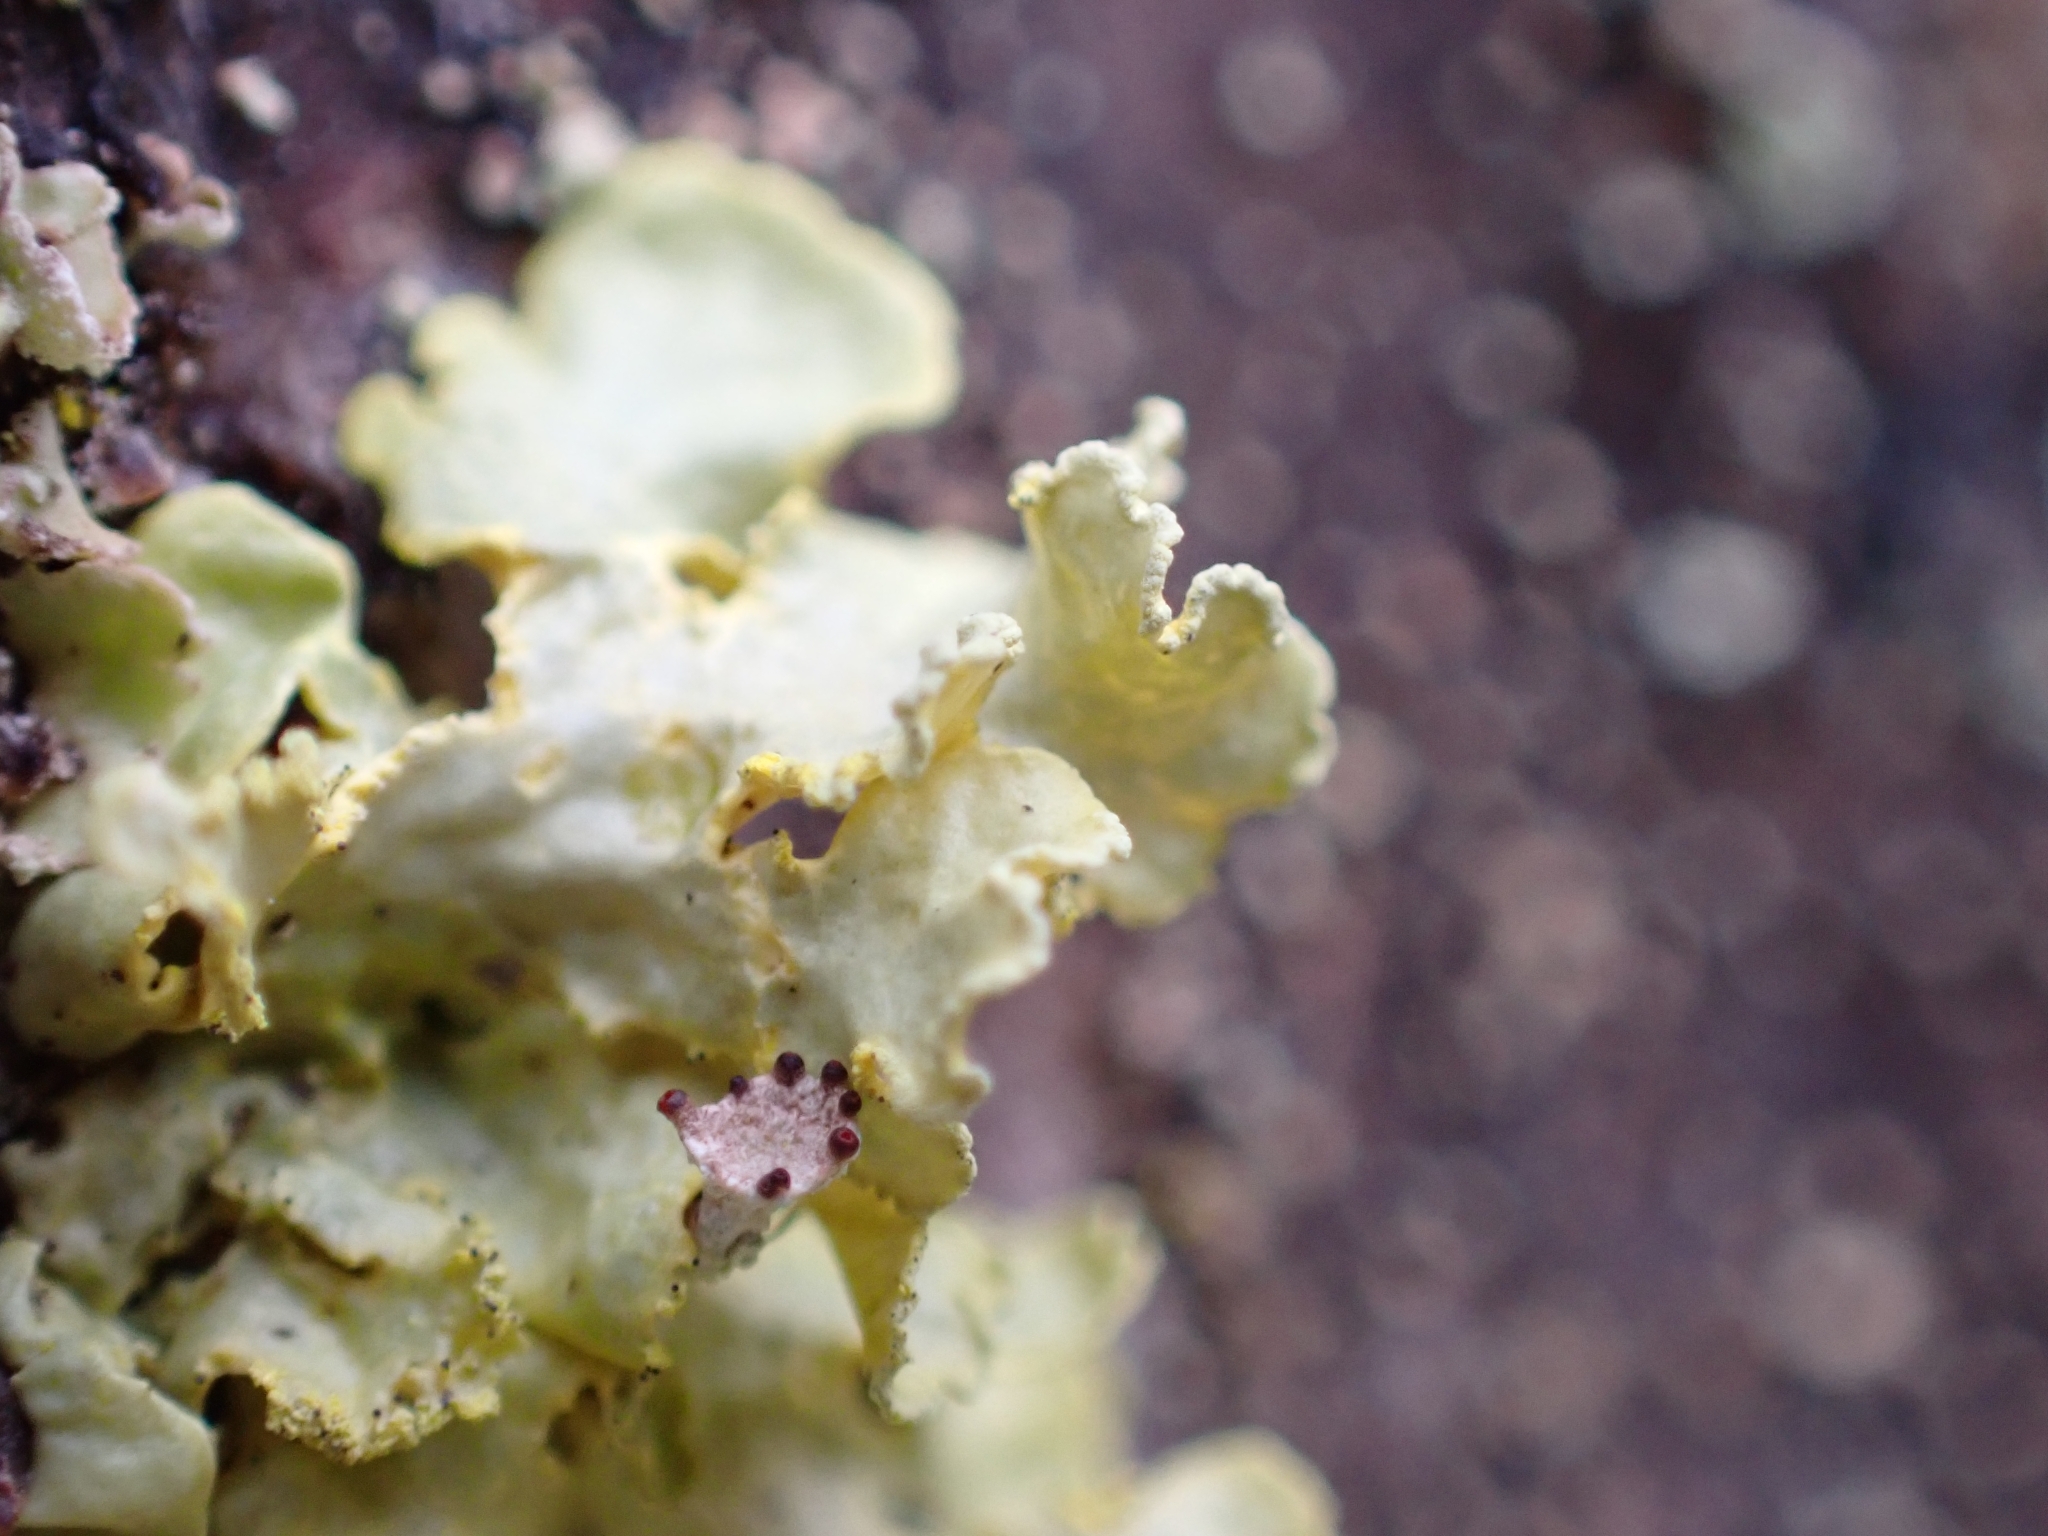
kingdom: Fungi
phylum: Ascomycota
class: Lecanoromycetes
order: Lecanorales
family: Parmeliaceae
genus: Vulpicida
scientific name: Vulpicida pinastri
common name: Powdered sunshine lichen
